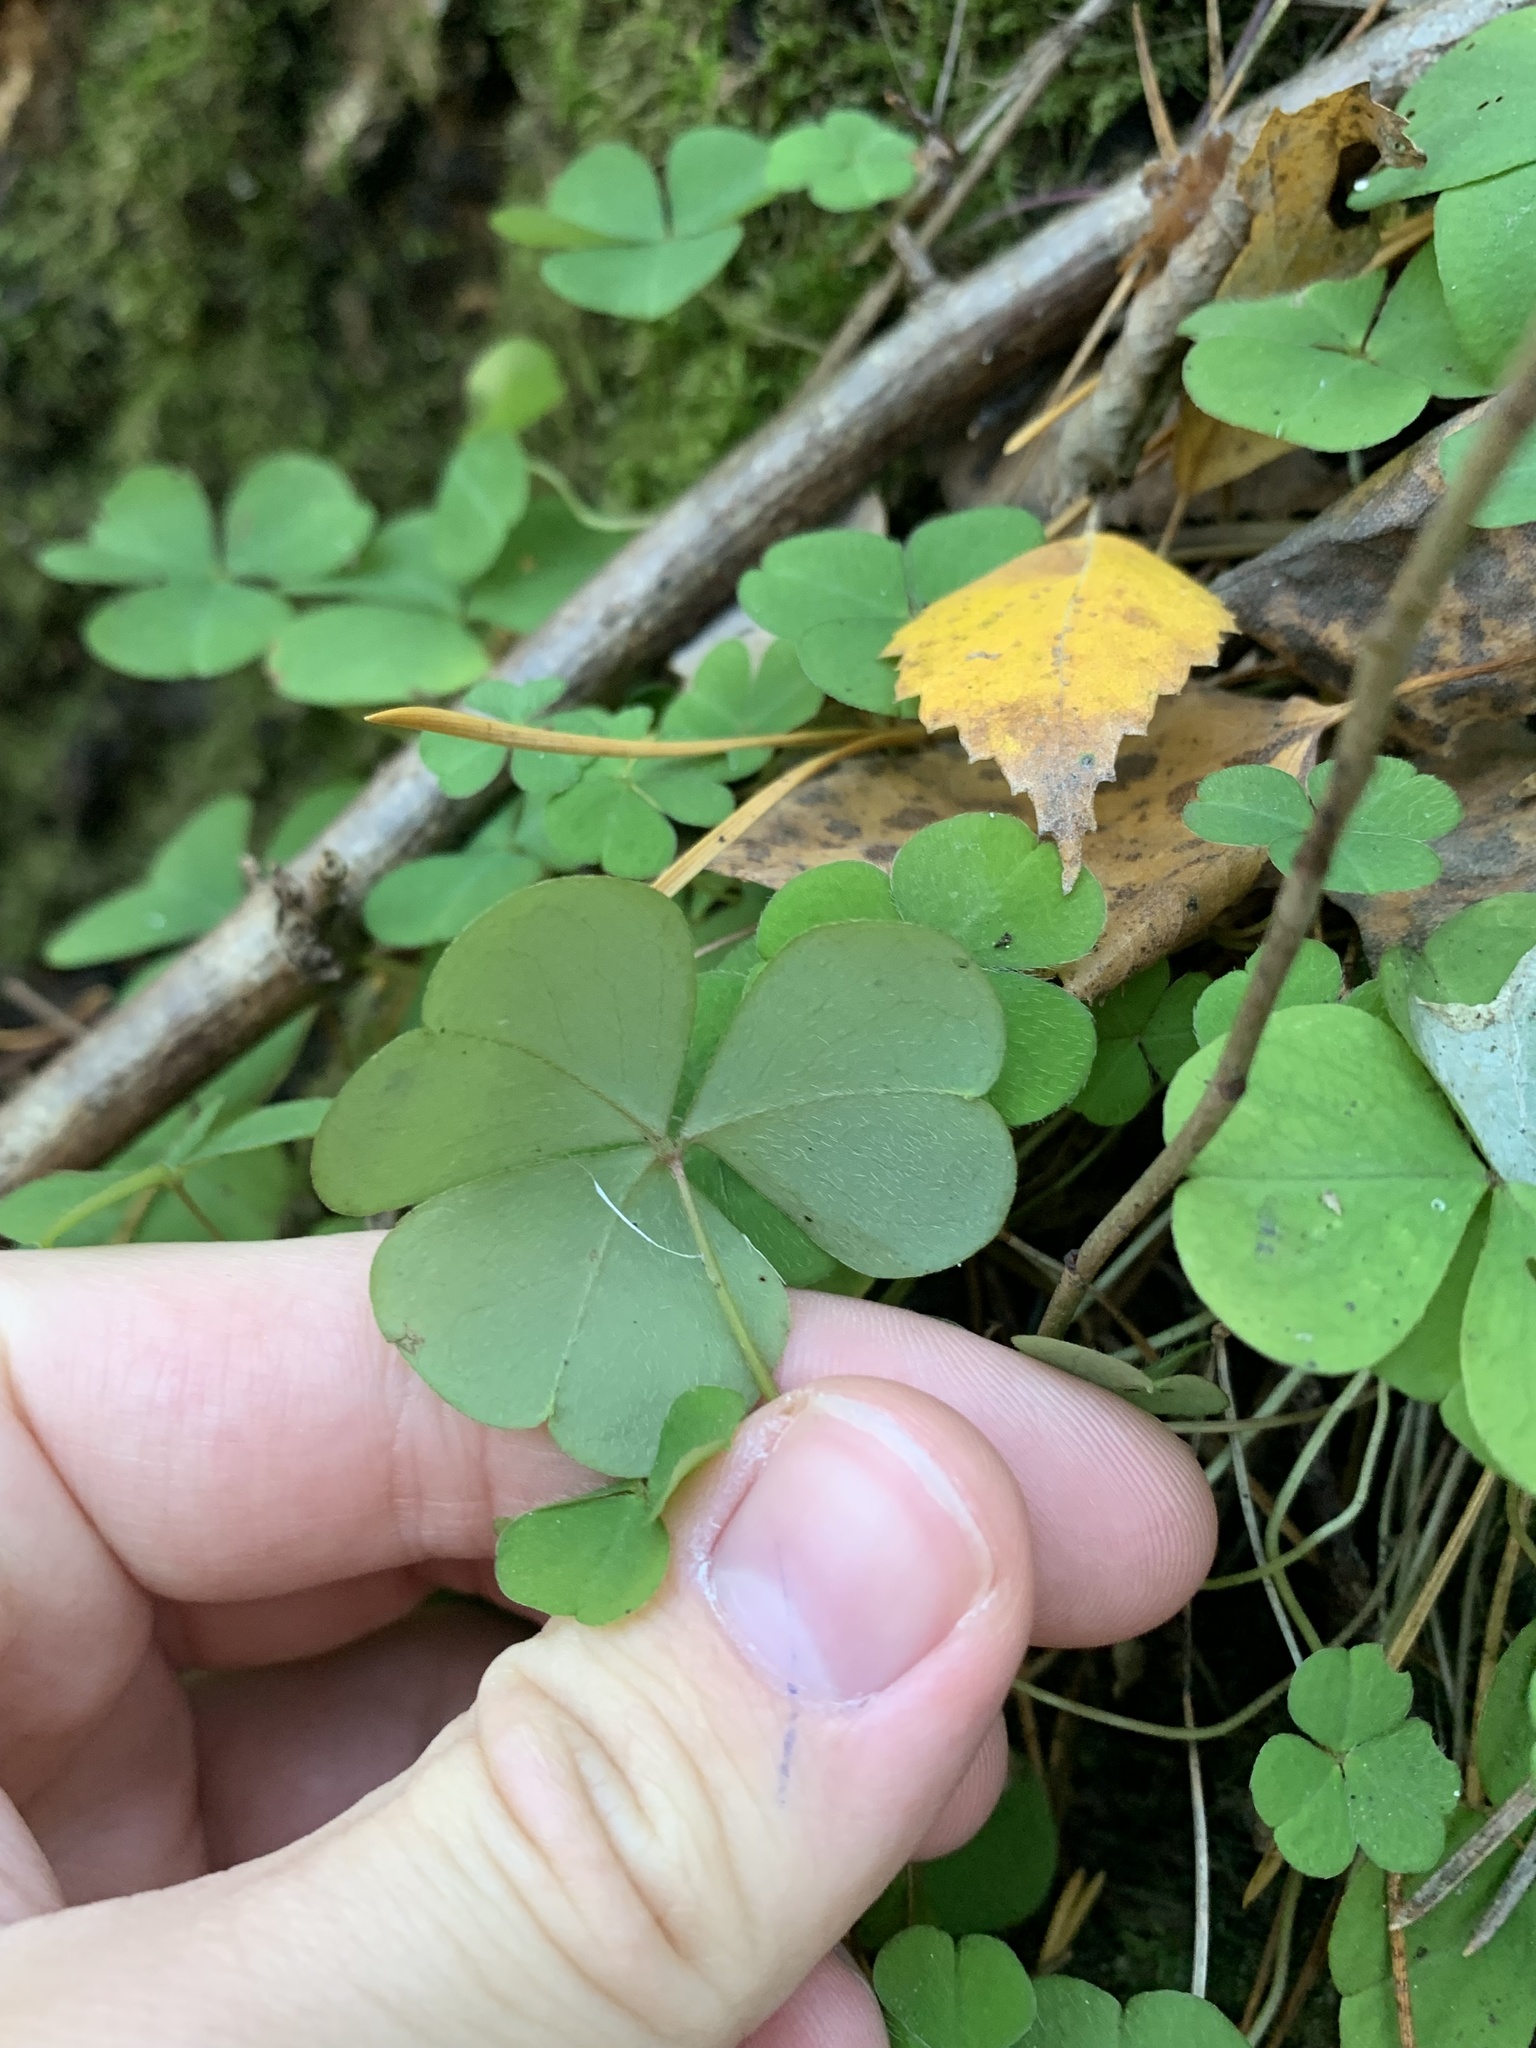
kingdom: Plantae
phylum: Tracheophyta
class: Magnoliopsida
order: Oxalidales
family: Oxalidaceae
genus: Oxalis
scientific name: Oxalis acetosella
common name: Wood-sorrel
